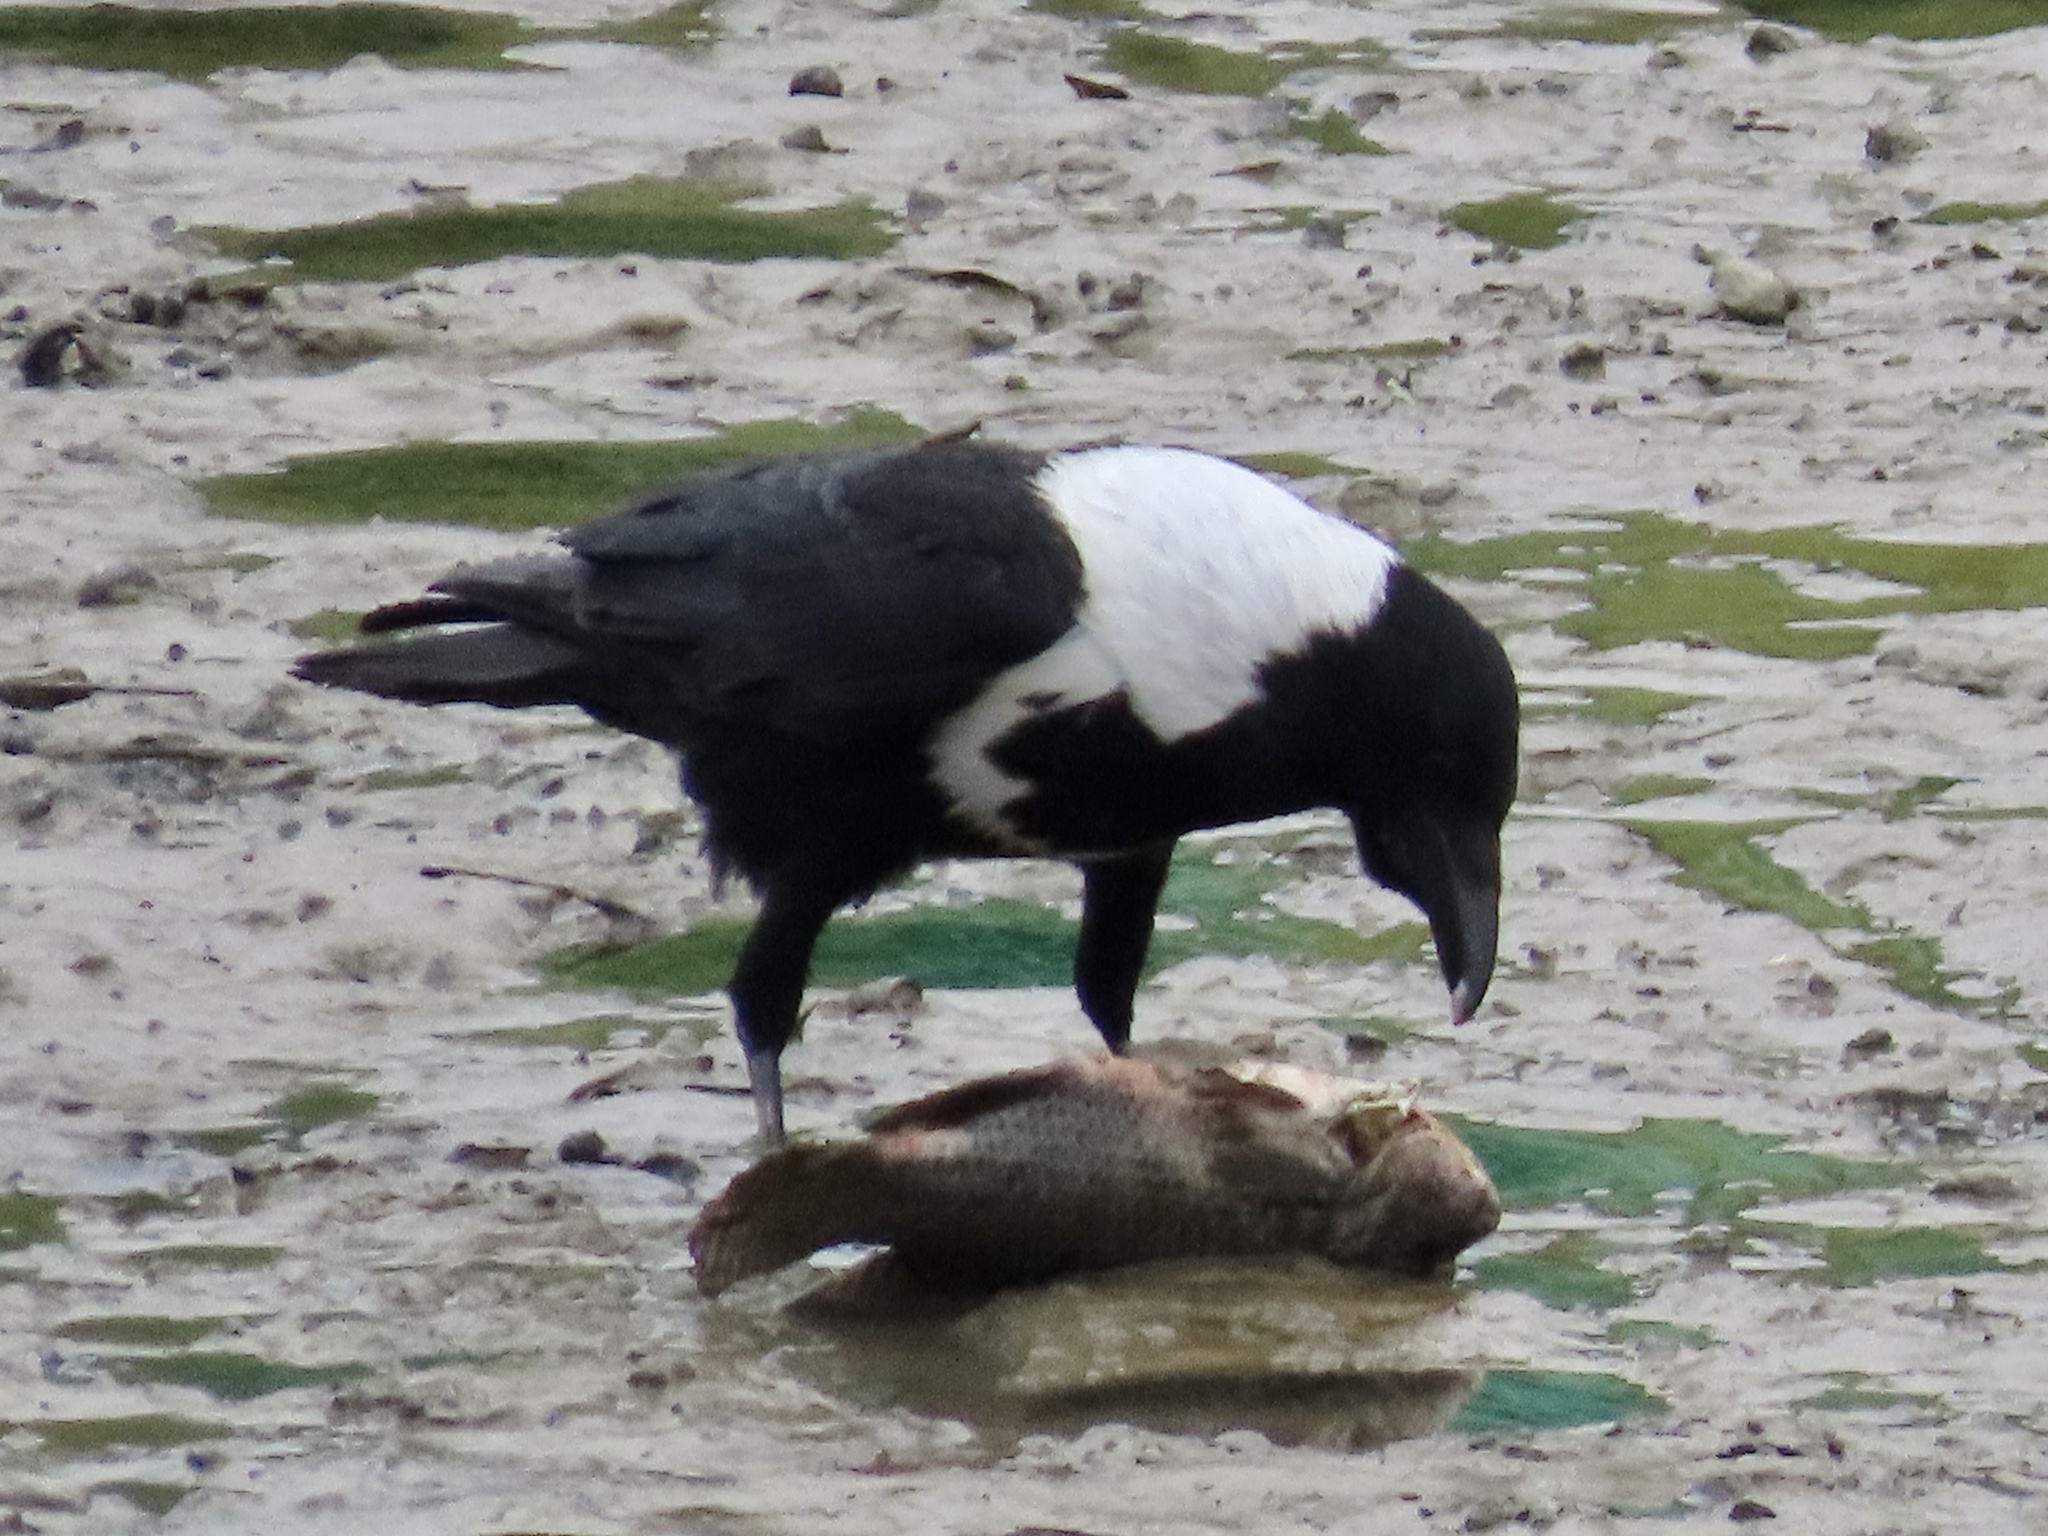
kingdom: Animalia
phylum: Chordata
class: Aves
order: Passeriformes
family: Corvidae
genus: Corvus
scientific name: Corvus pectoralis
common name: Collared crow
